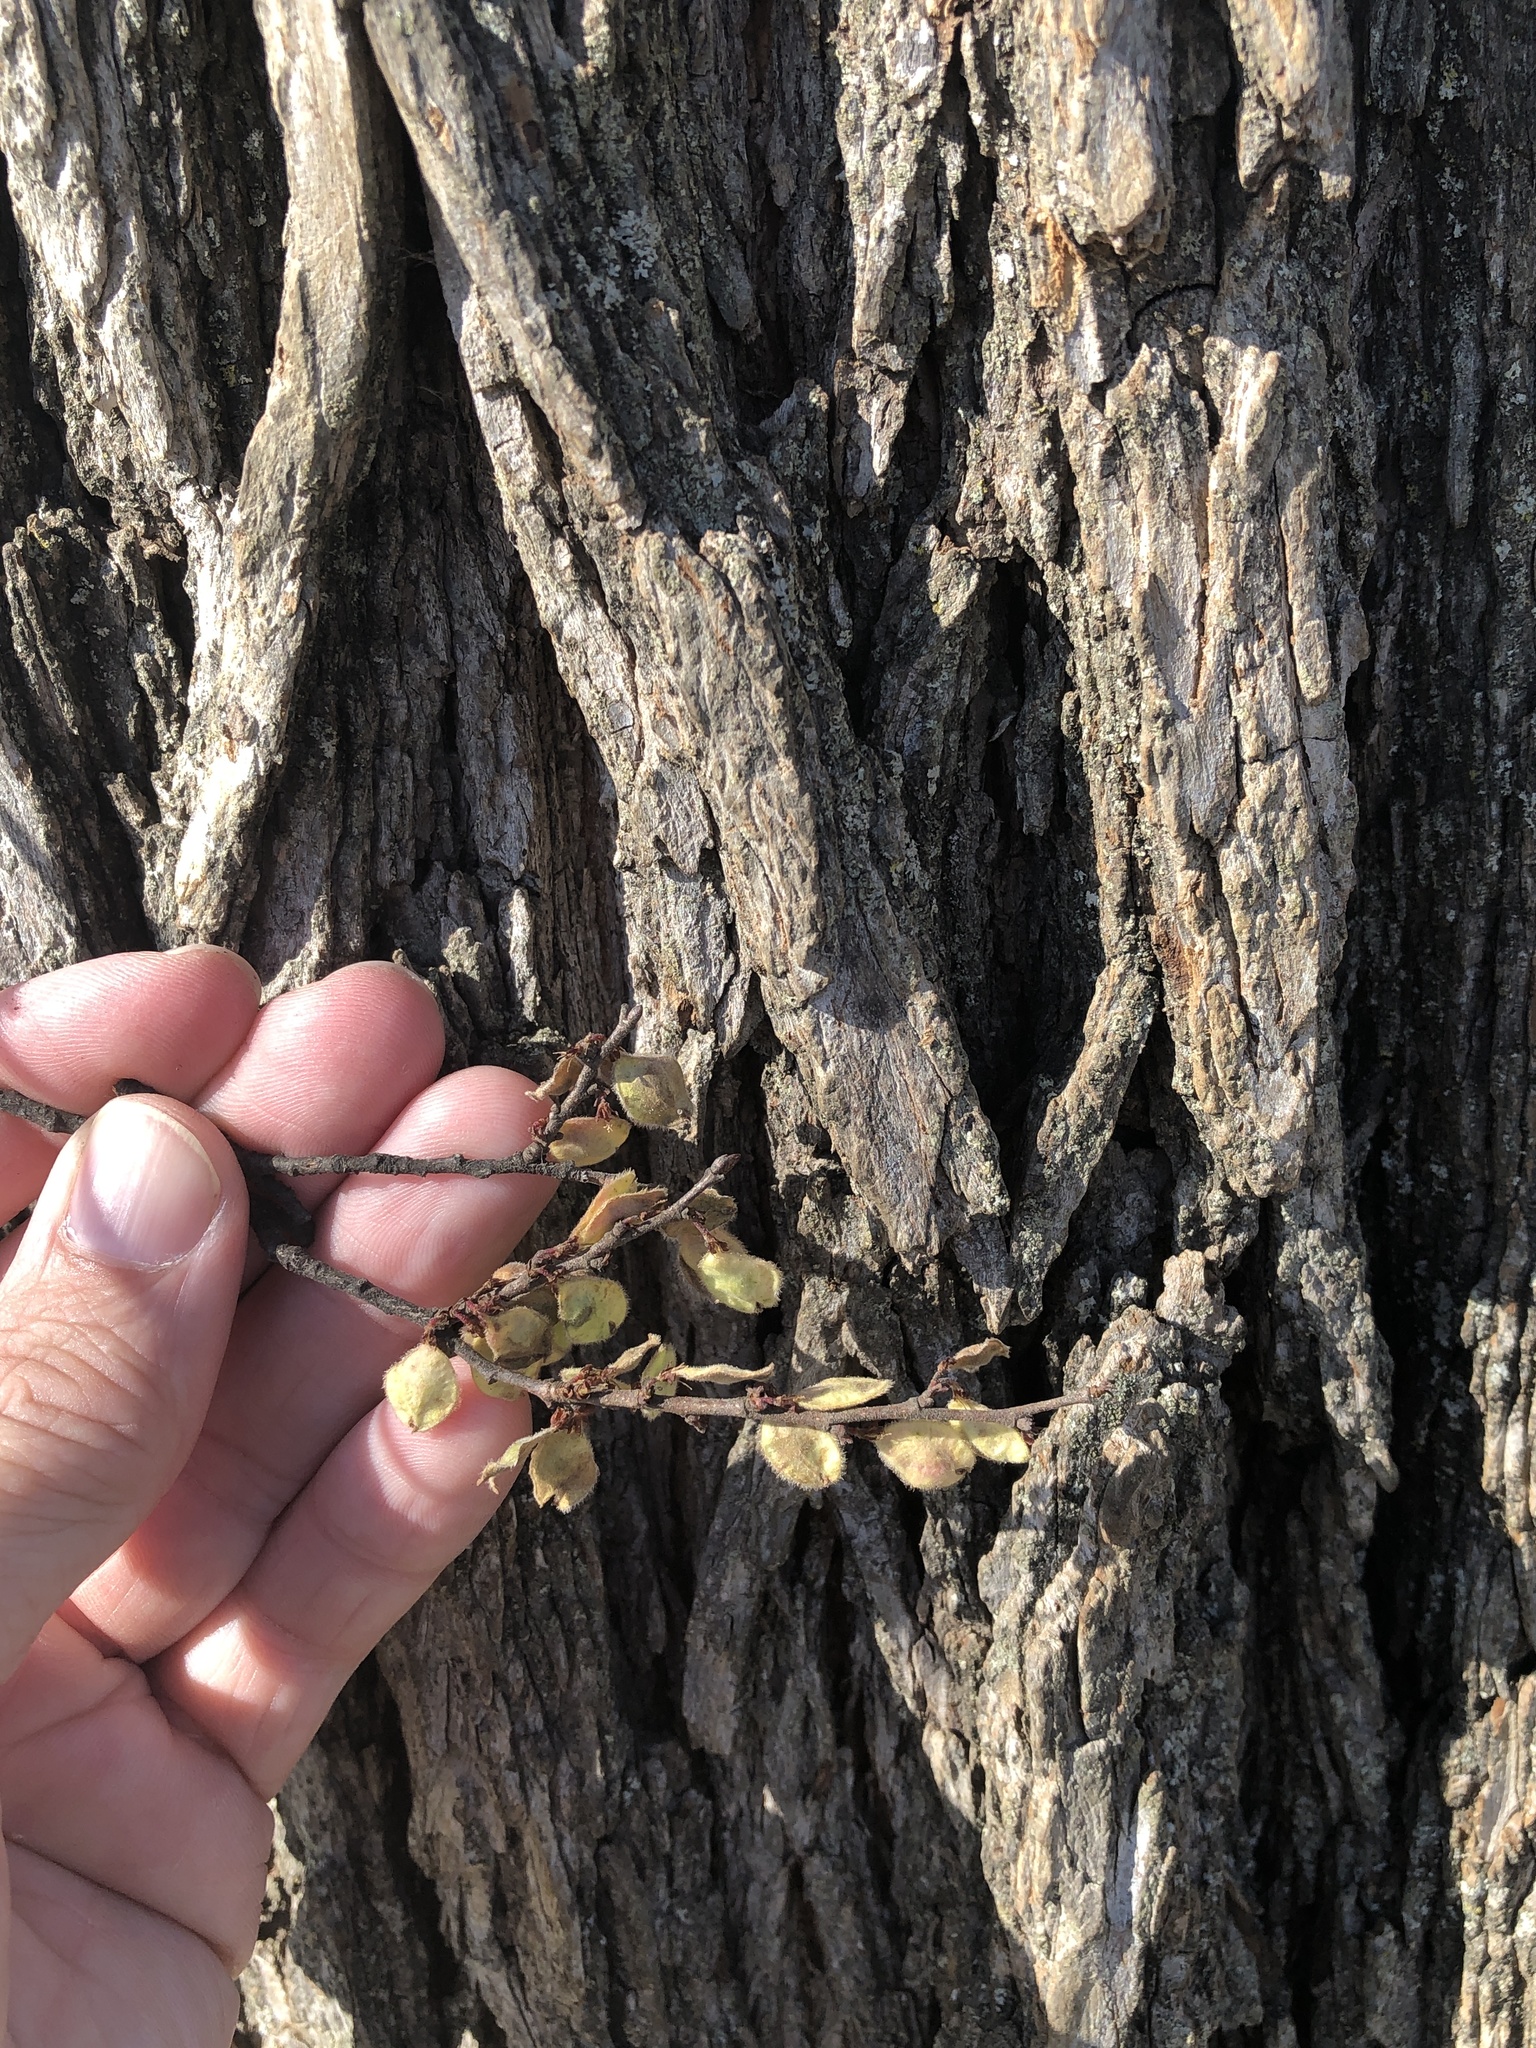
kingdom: Plantae
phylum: Tracheophyta
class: Magnoliopsida
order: Rosales
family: Ulmaceae
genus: Ulmus
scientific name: Ulmus crassifolia
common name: Basket elm
